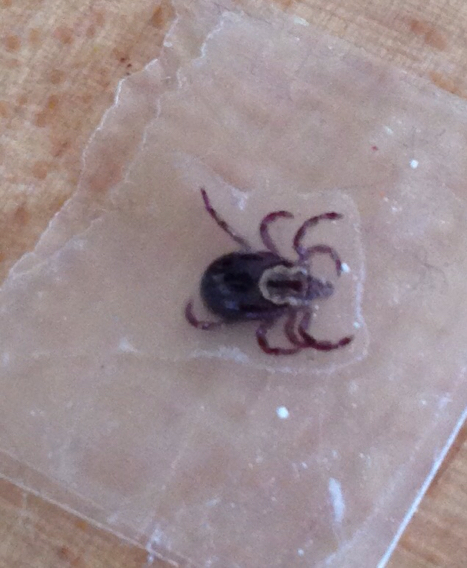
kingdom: Animalia
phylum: Arthropoda
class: Arachnida
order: Ixodida
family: Ixodidae
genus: Dermacentor
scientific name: Dermacentor variabilis
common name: American dog tick
